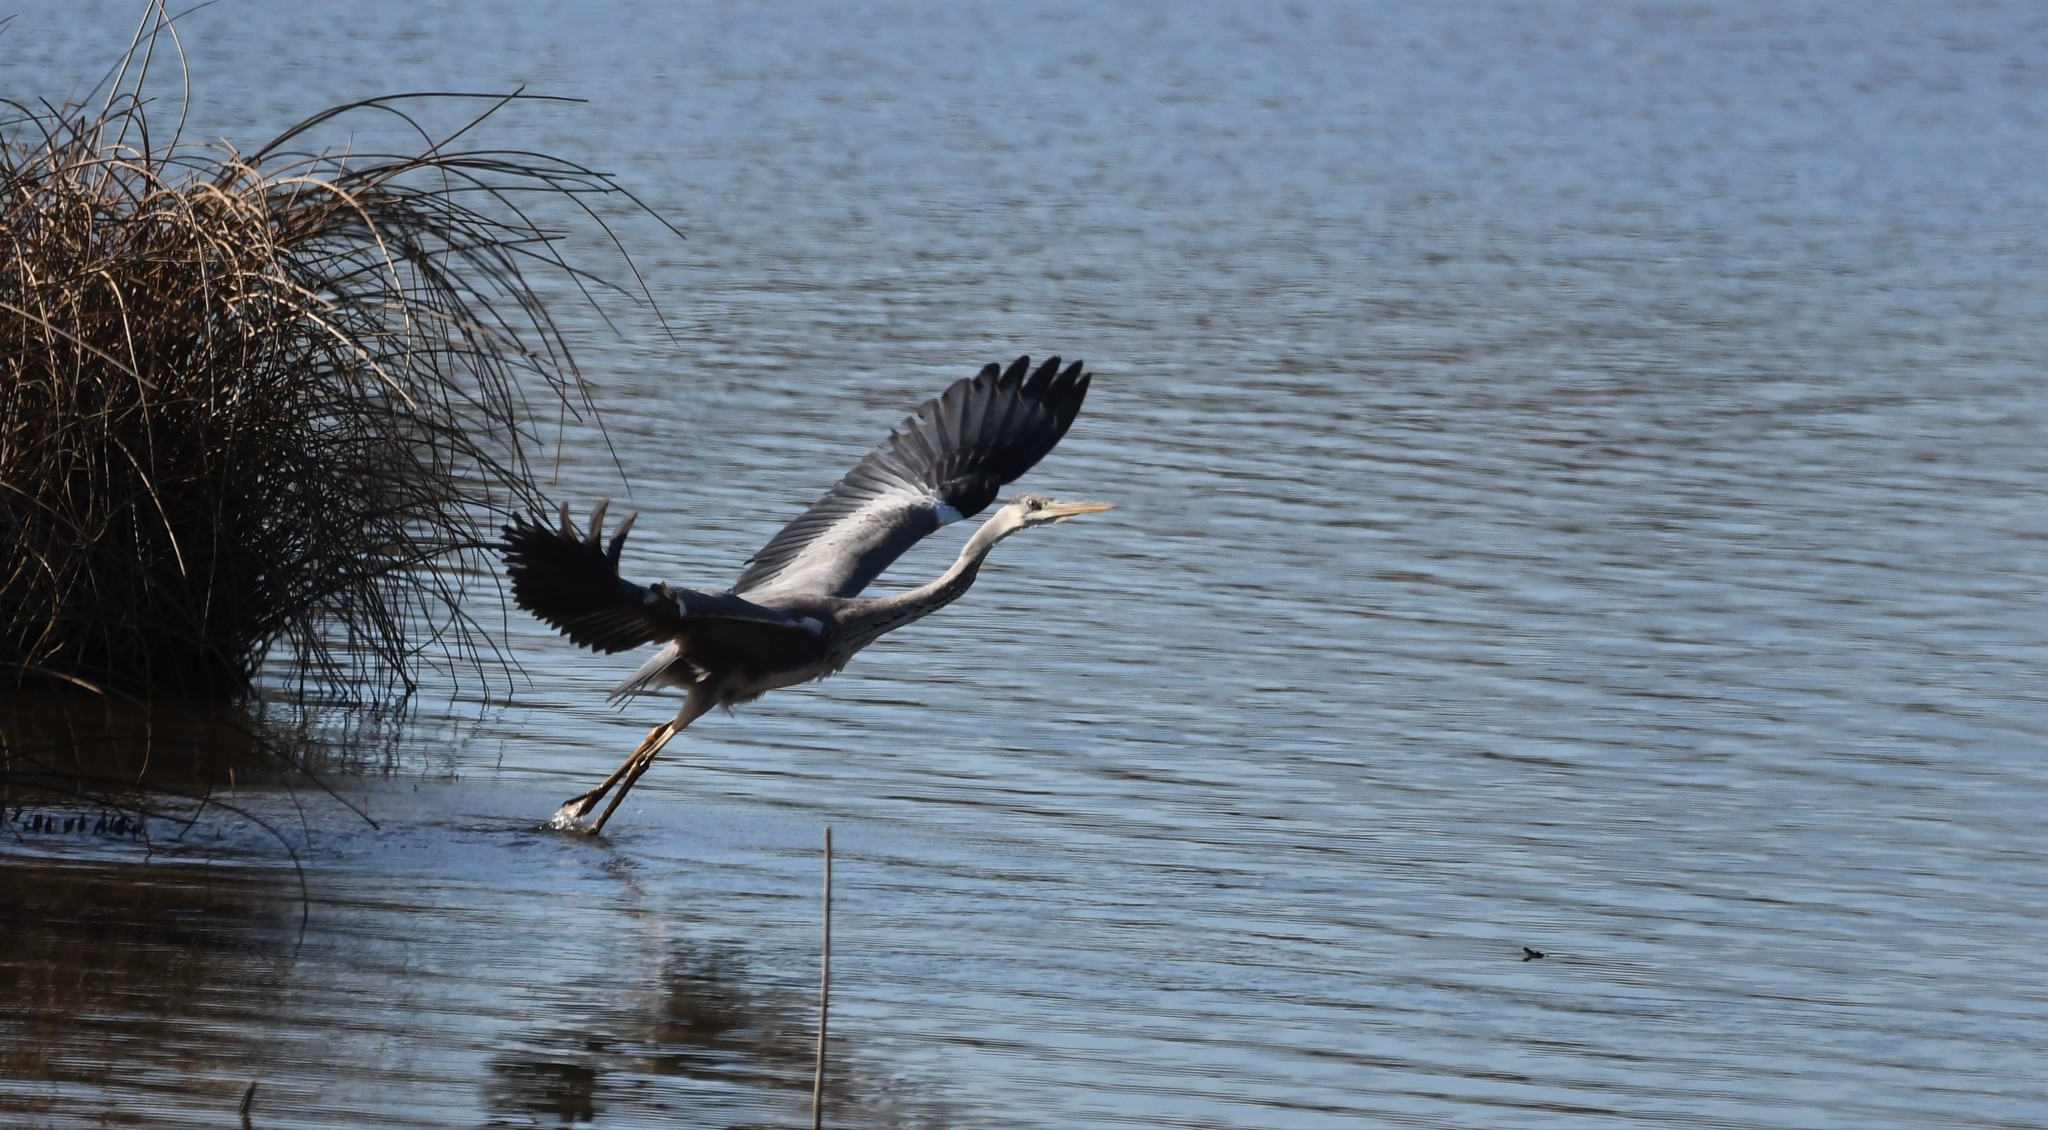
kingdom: Animalia
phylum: Chordata
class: Aves
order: Pelecaniformes
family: Ardeidae
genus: Ardea
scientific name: Ardea cinerea
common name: Grey heron
